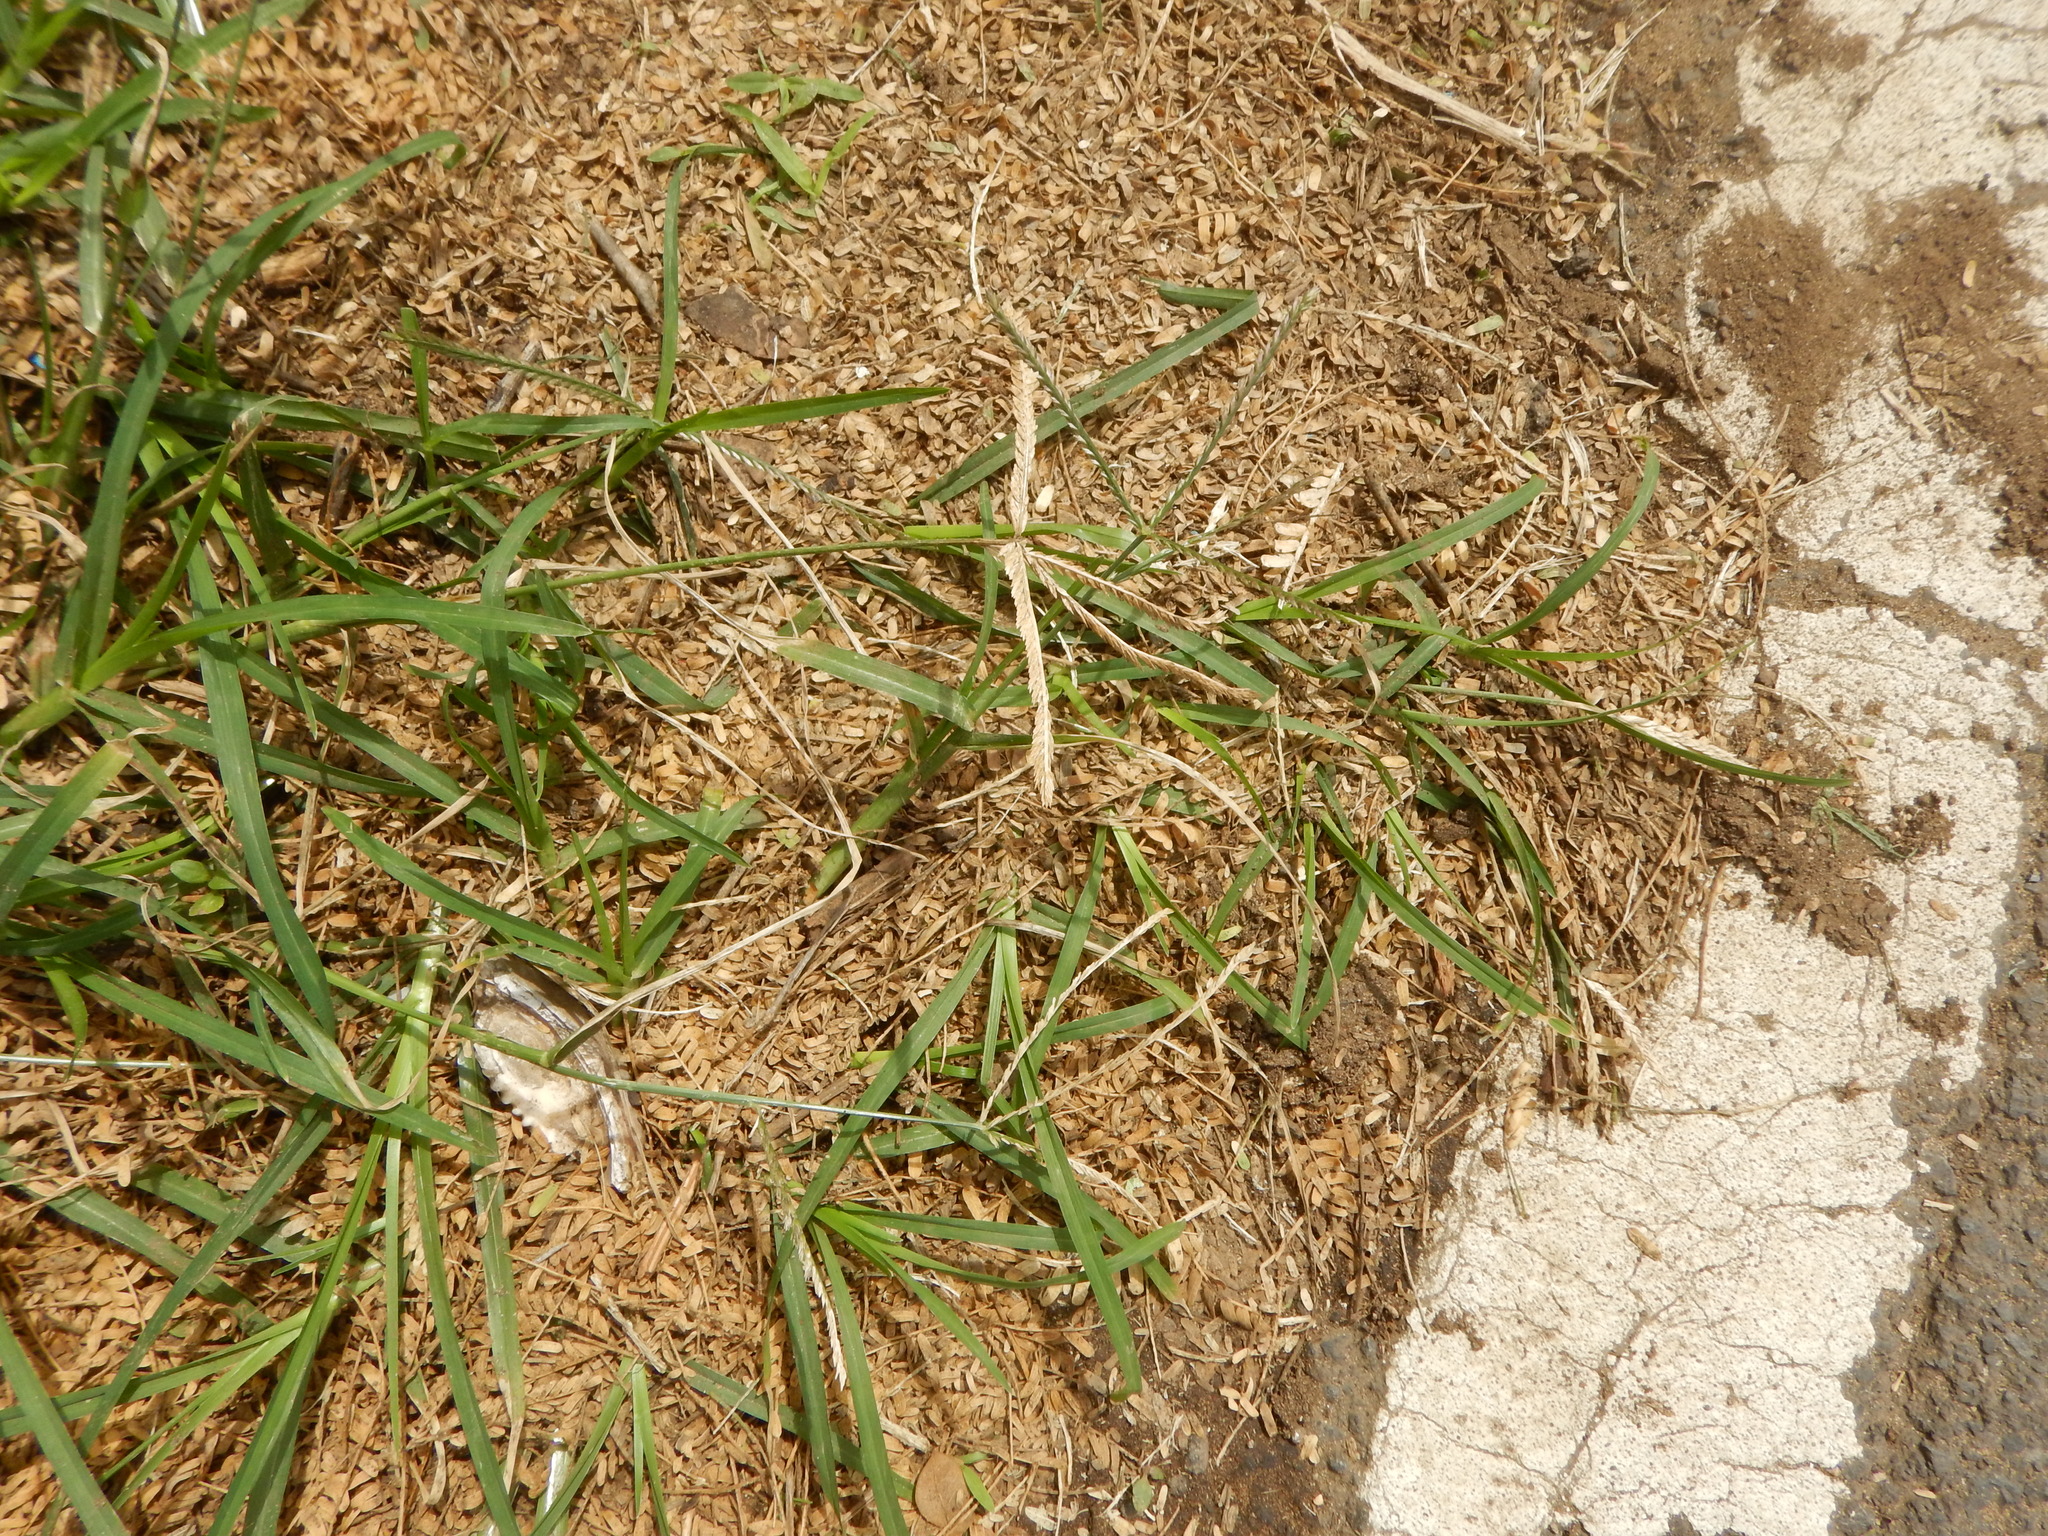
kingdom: Plantae
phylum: Tracheophyta
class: Liliopsida
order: Poales
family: Poaceae
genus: Eleusine
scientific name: Eleusine indica
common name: Yard-grass
